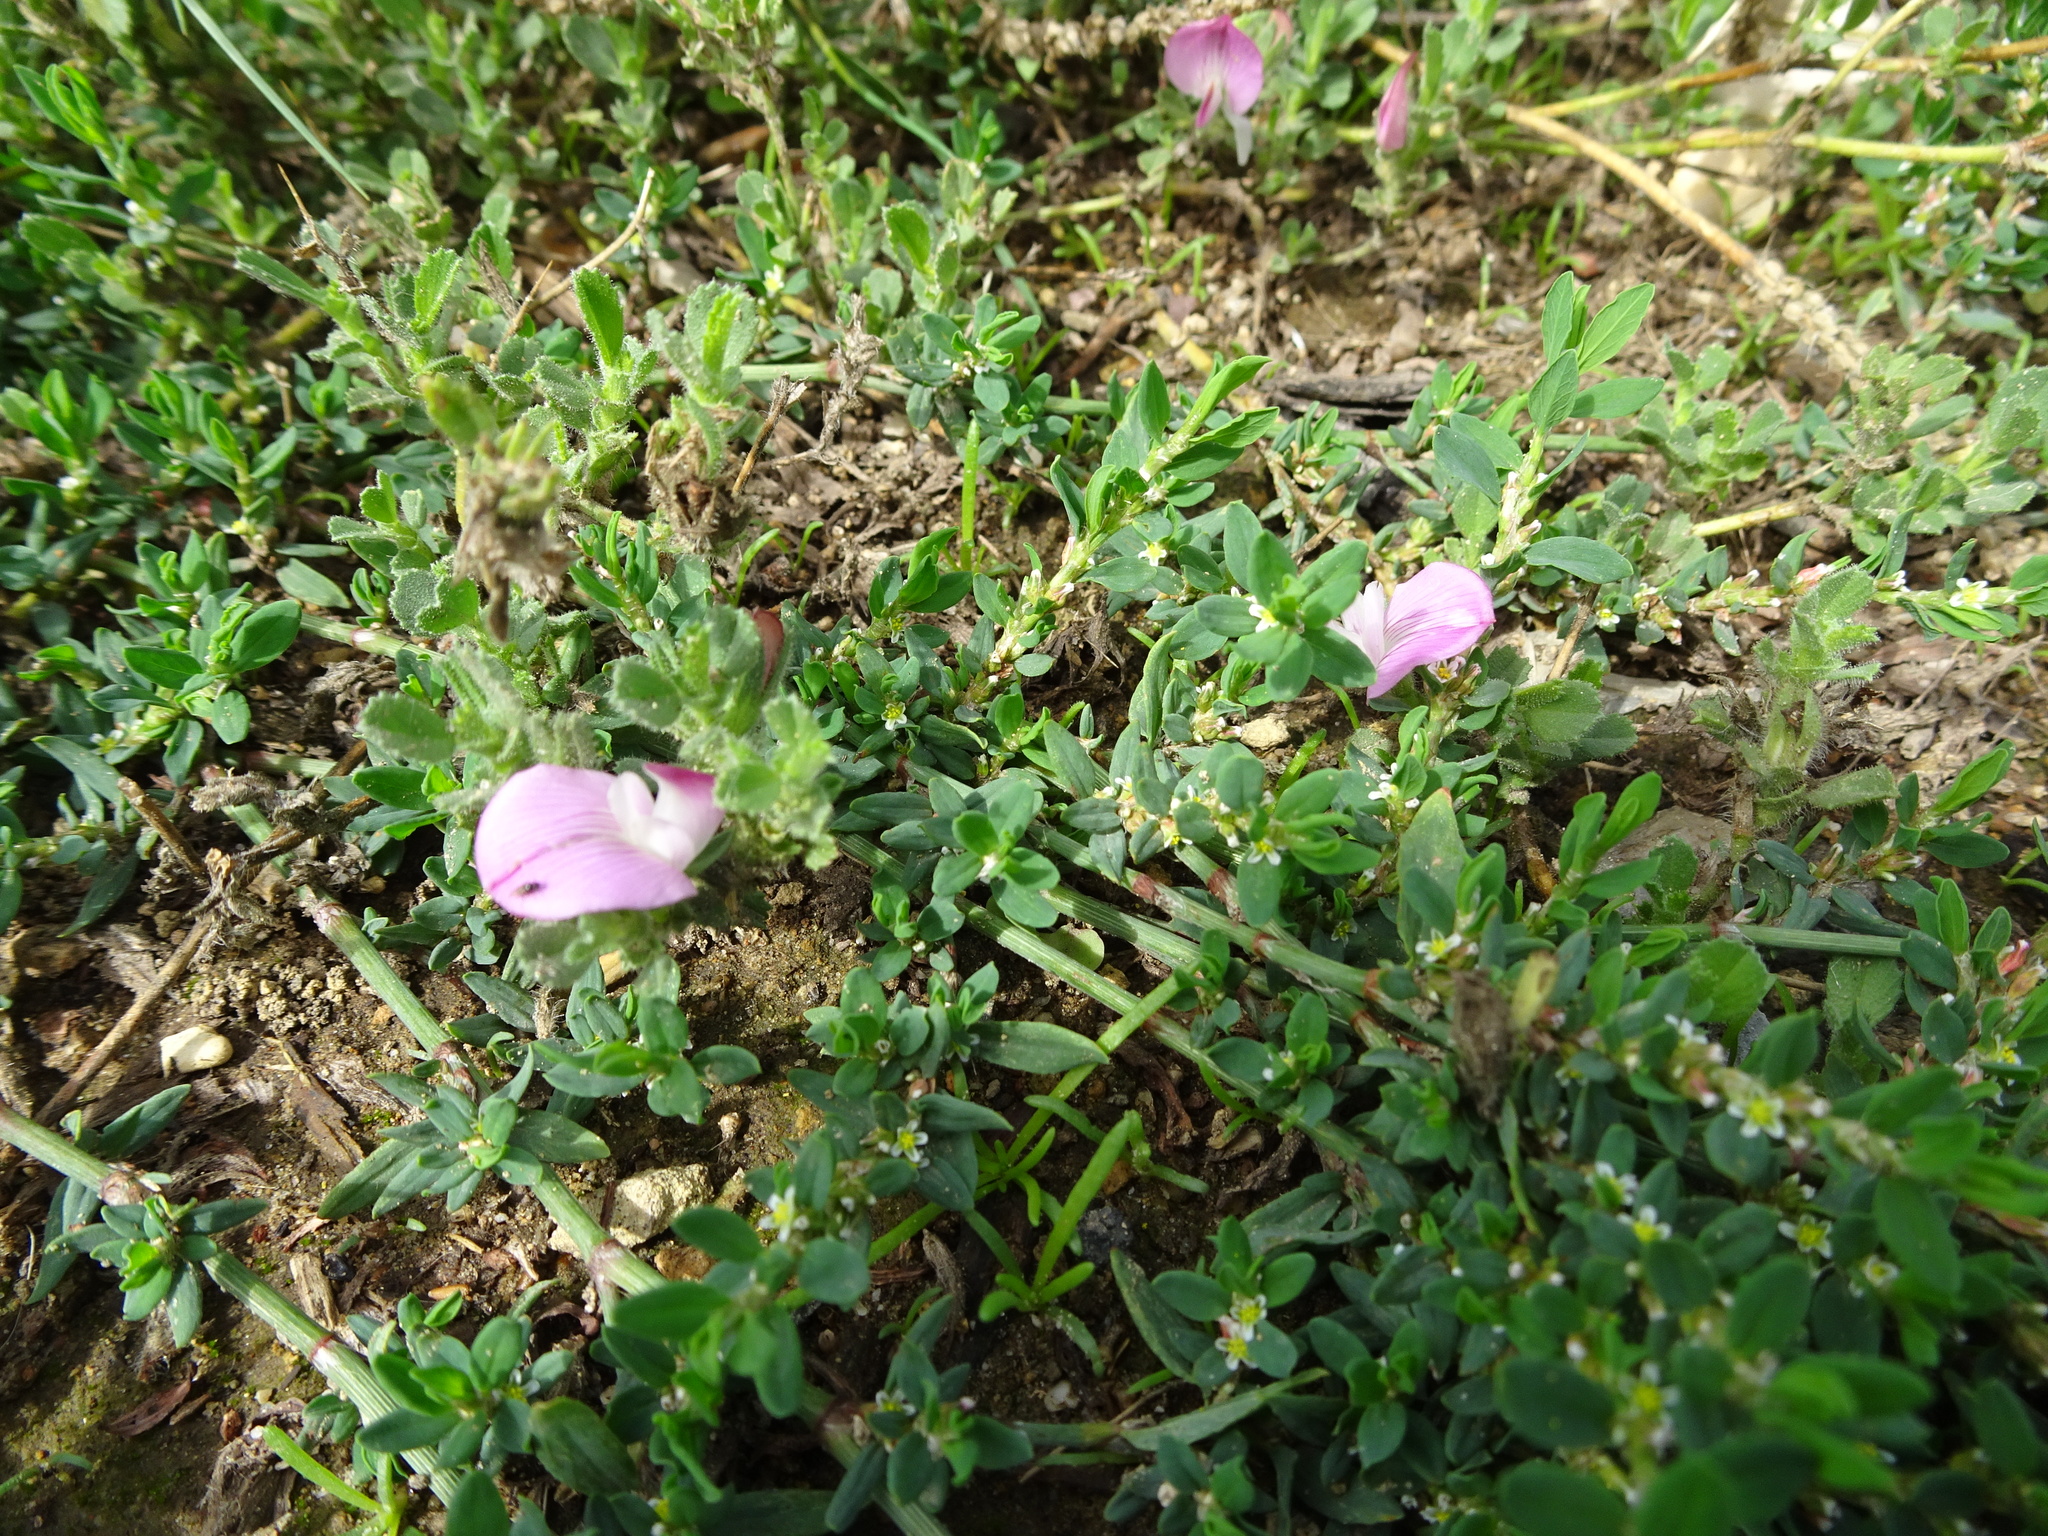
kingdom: Plantae
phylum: Tracheophyta
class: Magnoliopsida
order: Fabales
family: Fabaceae
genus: Ononis
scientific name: Ononis spinosa
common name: Spiny restharrow
